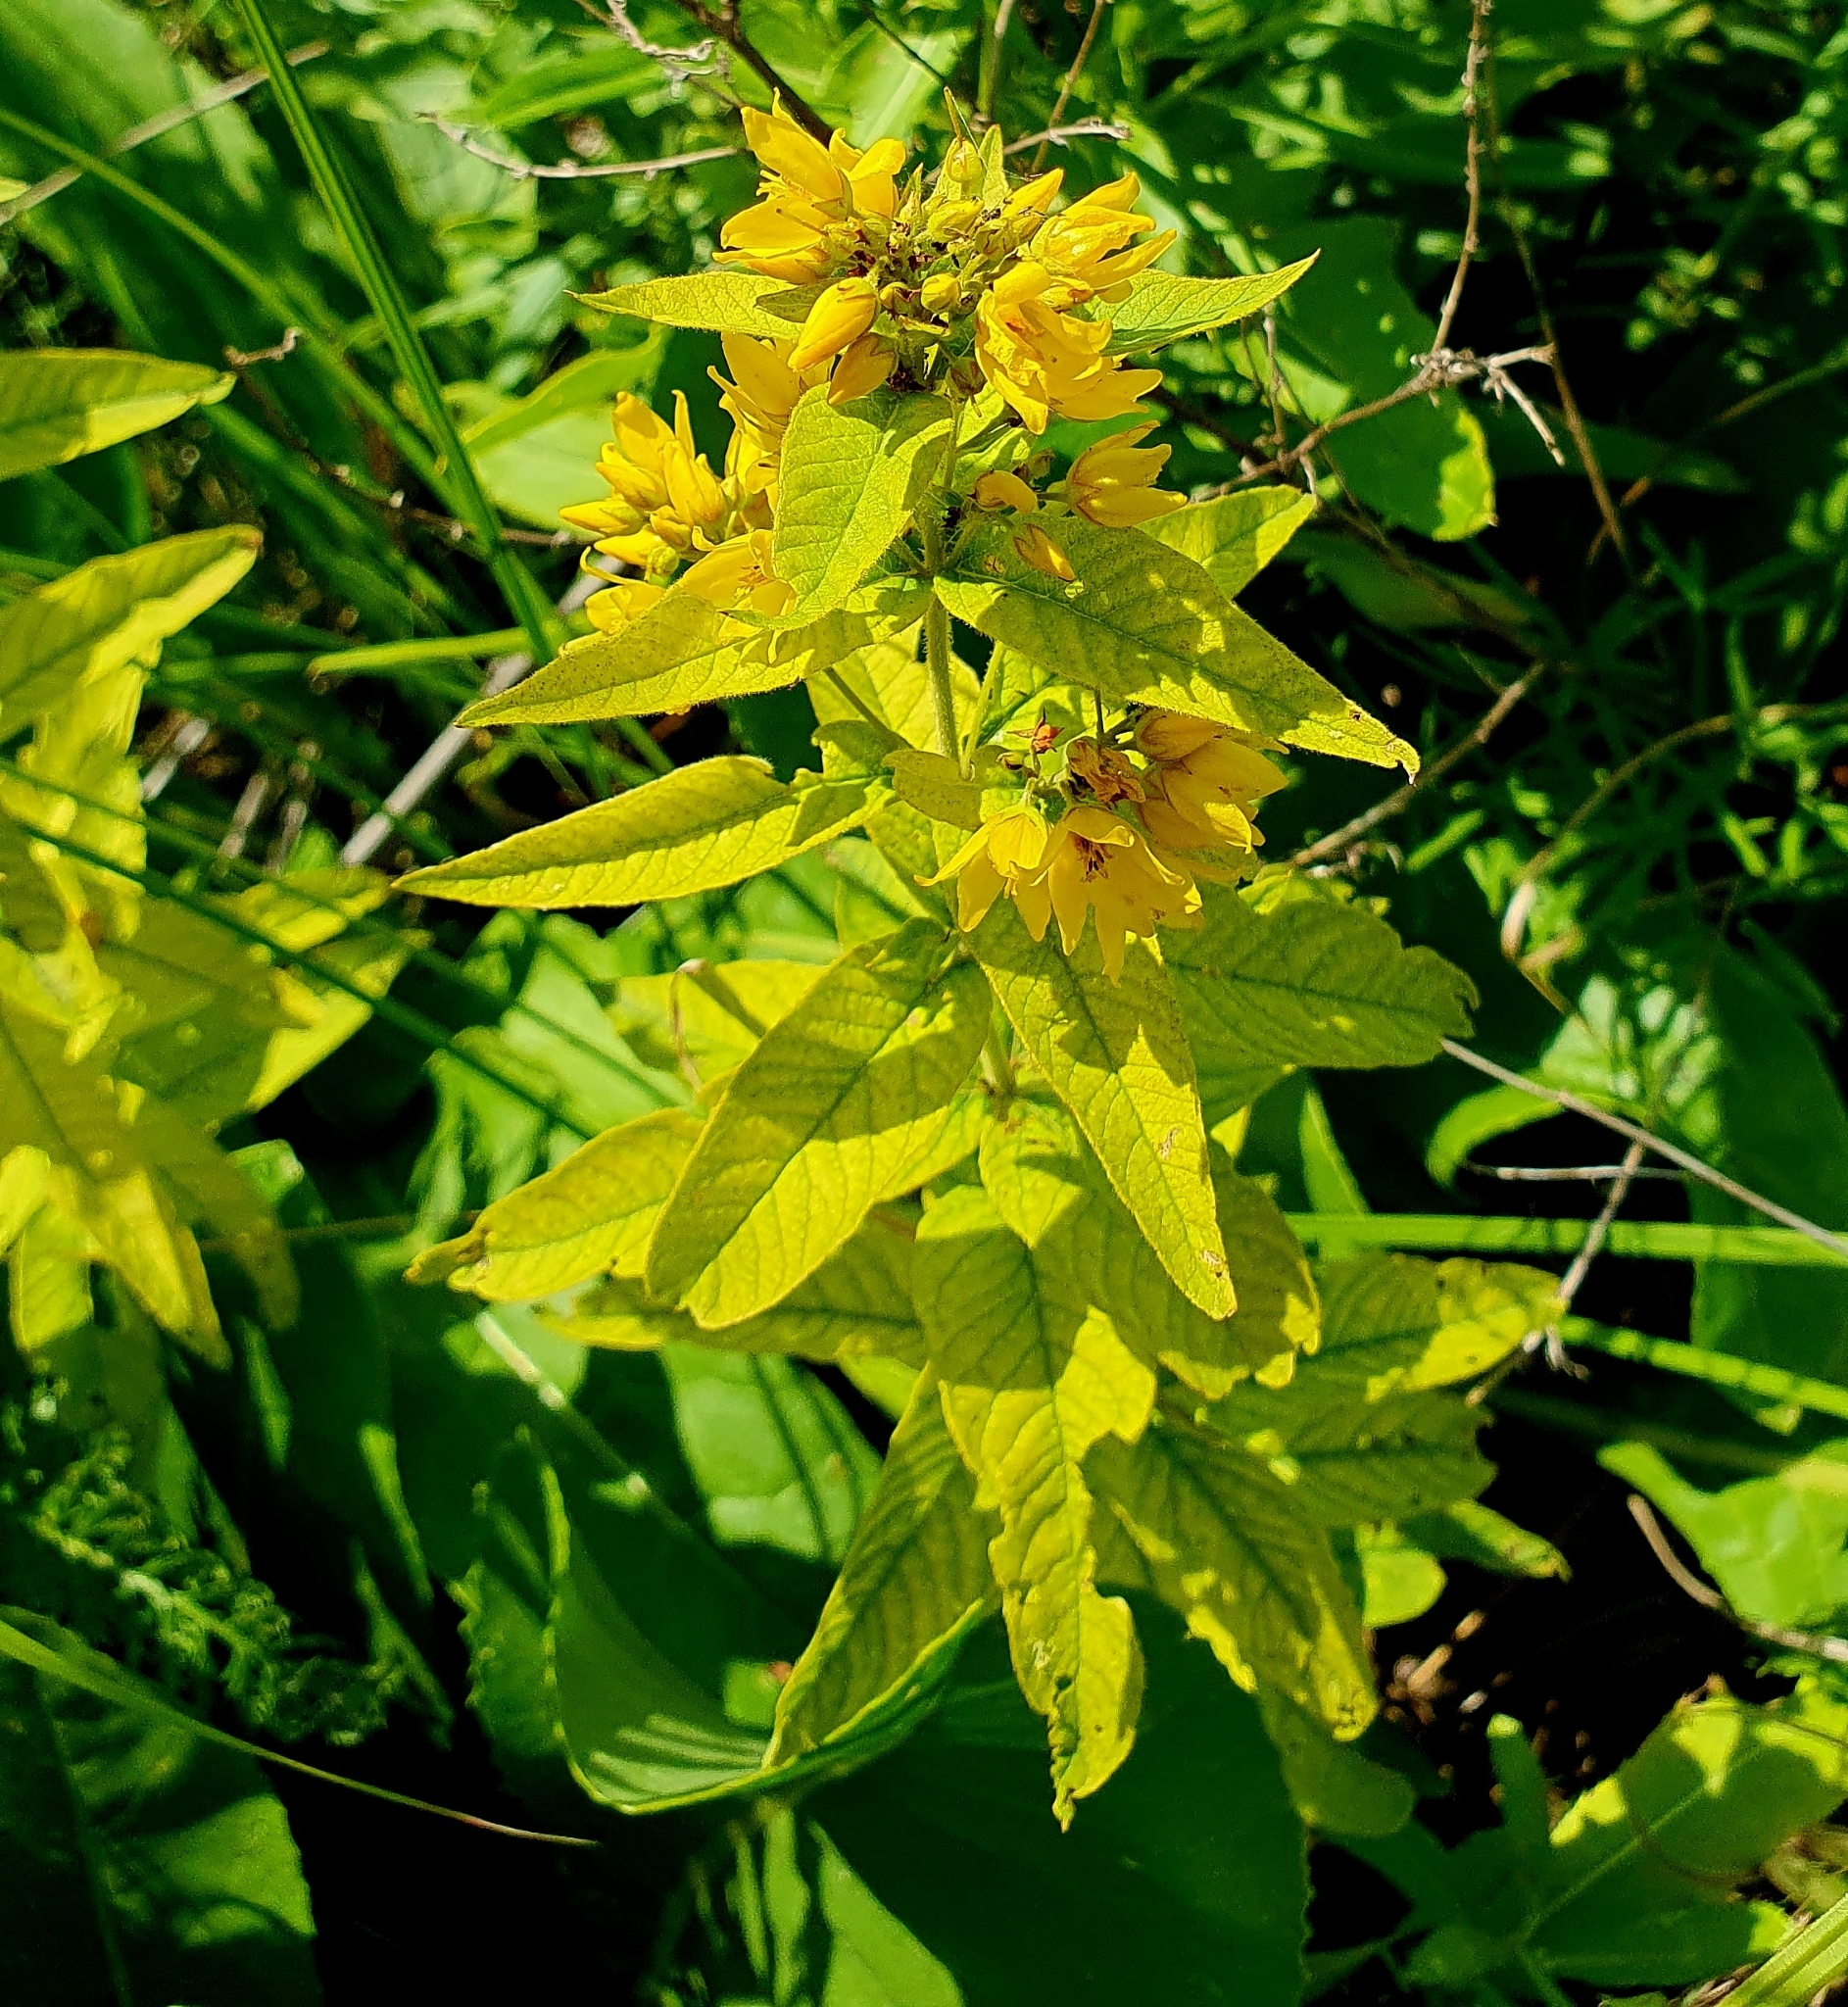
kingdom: Plantae
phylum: Tracheophyta
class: Magnoliopsida
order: Ericales
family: Primulaceae
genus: Lysimachia
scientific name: Lysimachia vulgaris
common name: Yellow loosestrife
